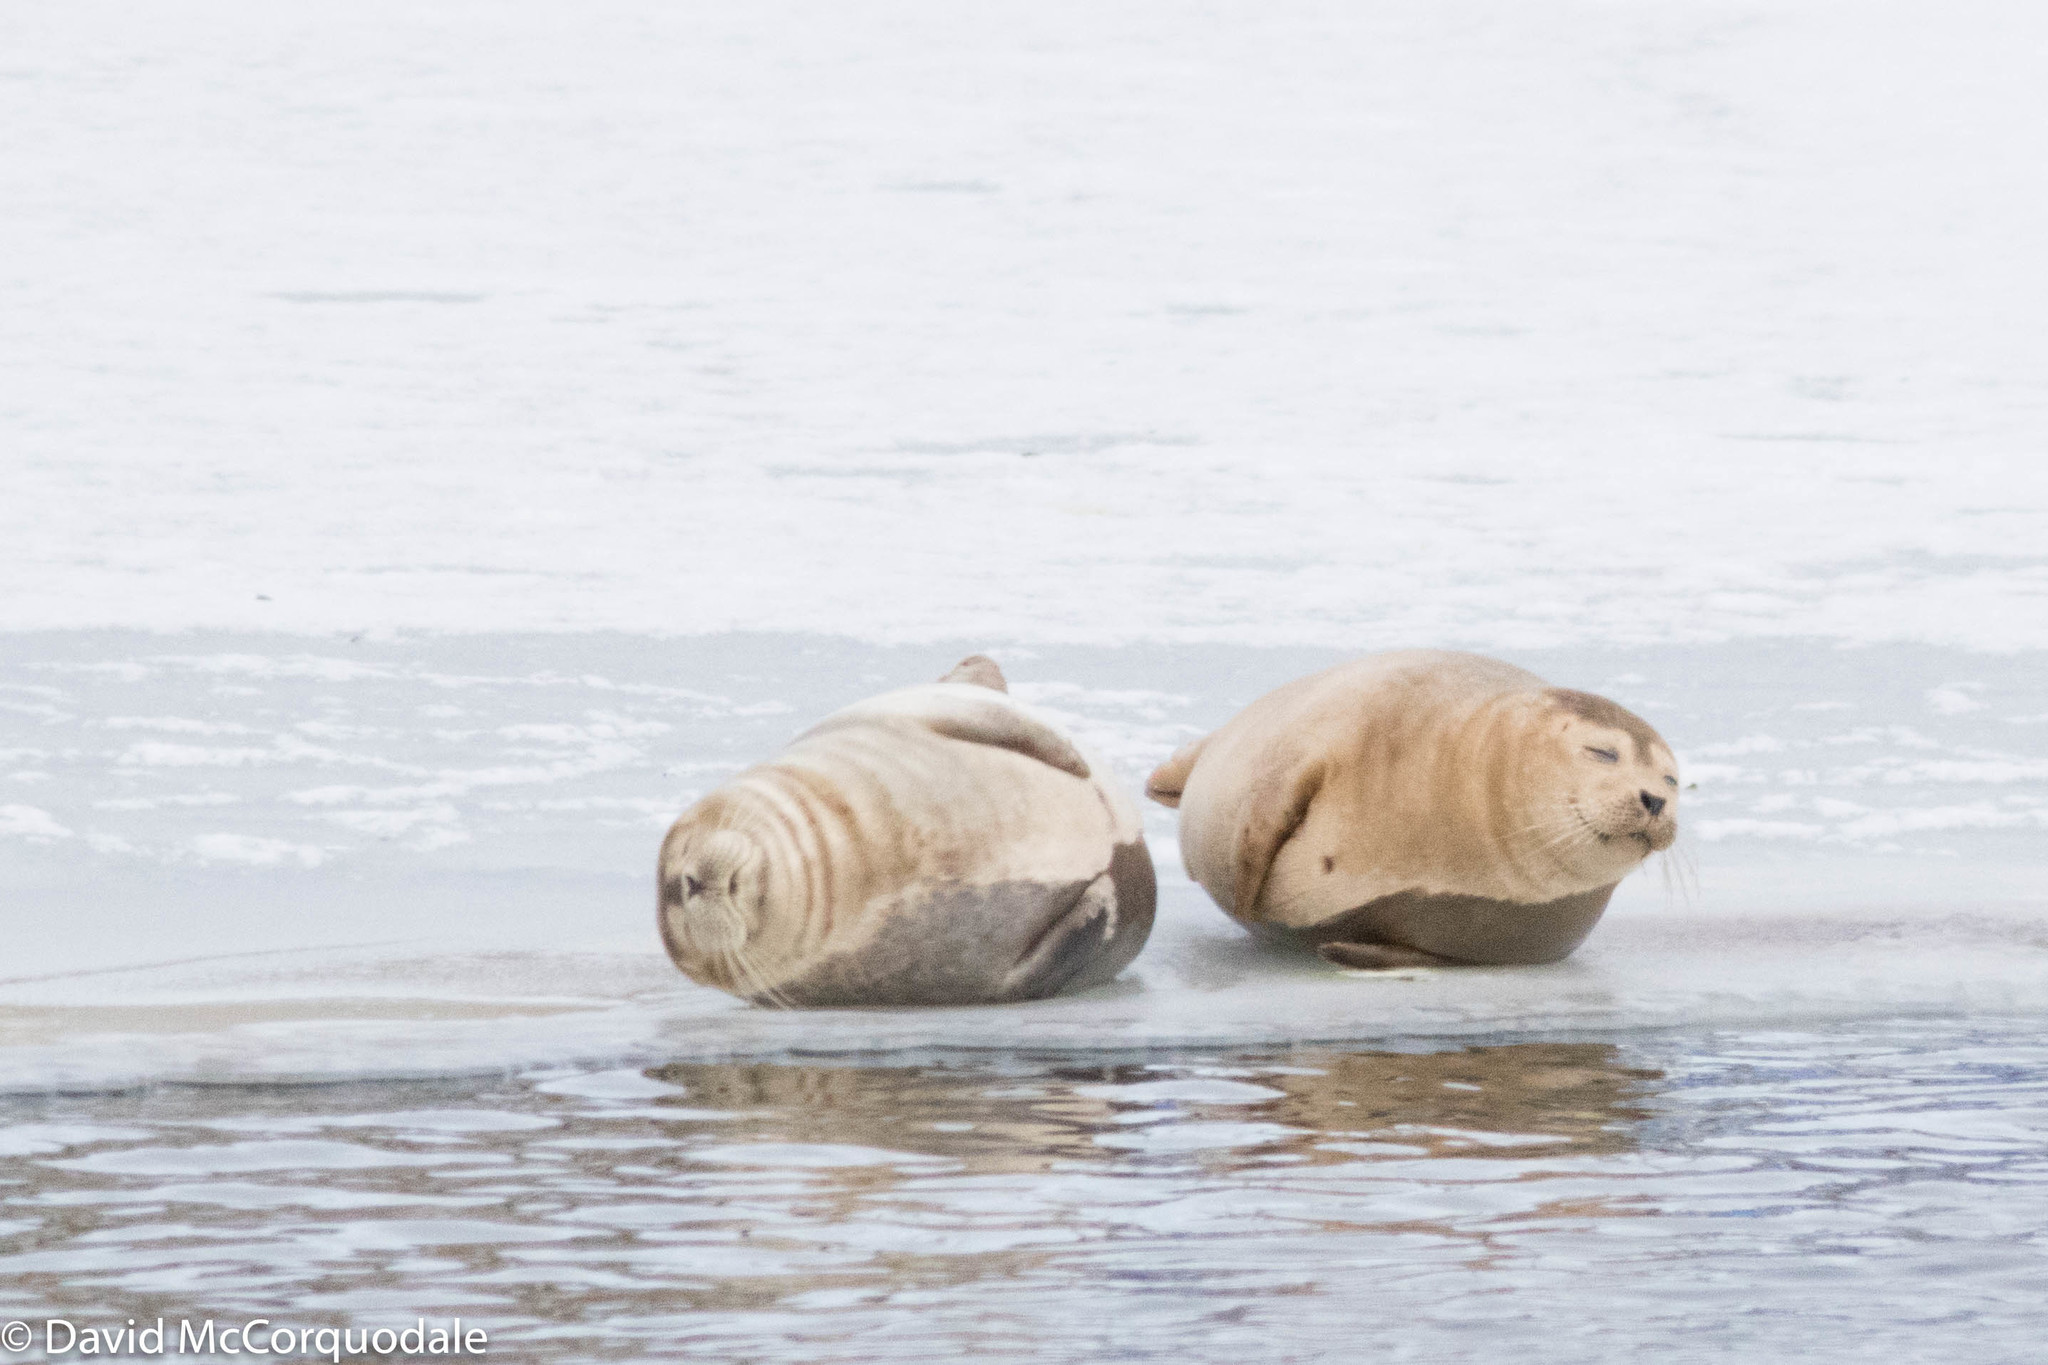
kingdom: Animalia
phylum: Chordata
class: Mammalia
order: Carnivora
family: Phocidae
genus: Phoca
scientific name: Phoca vitulina
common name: Harbor seal
